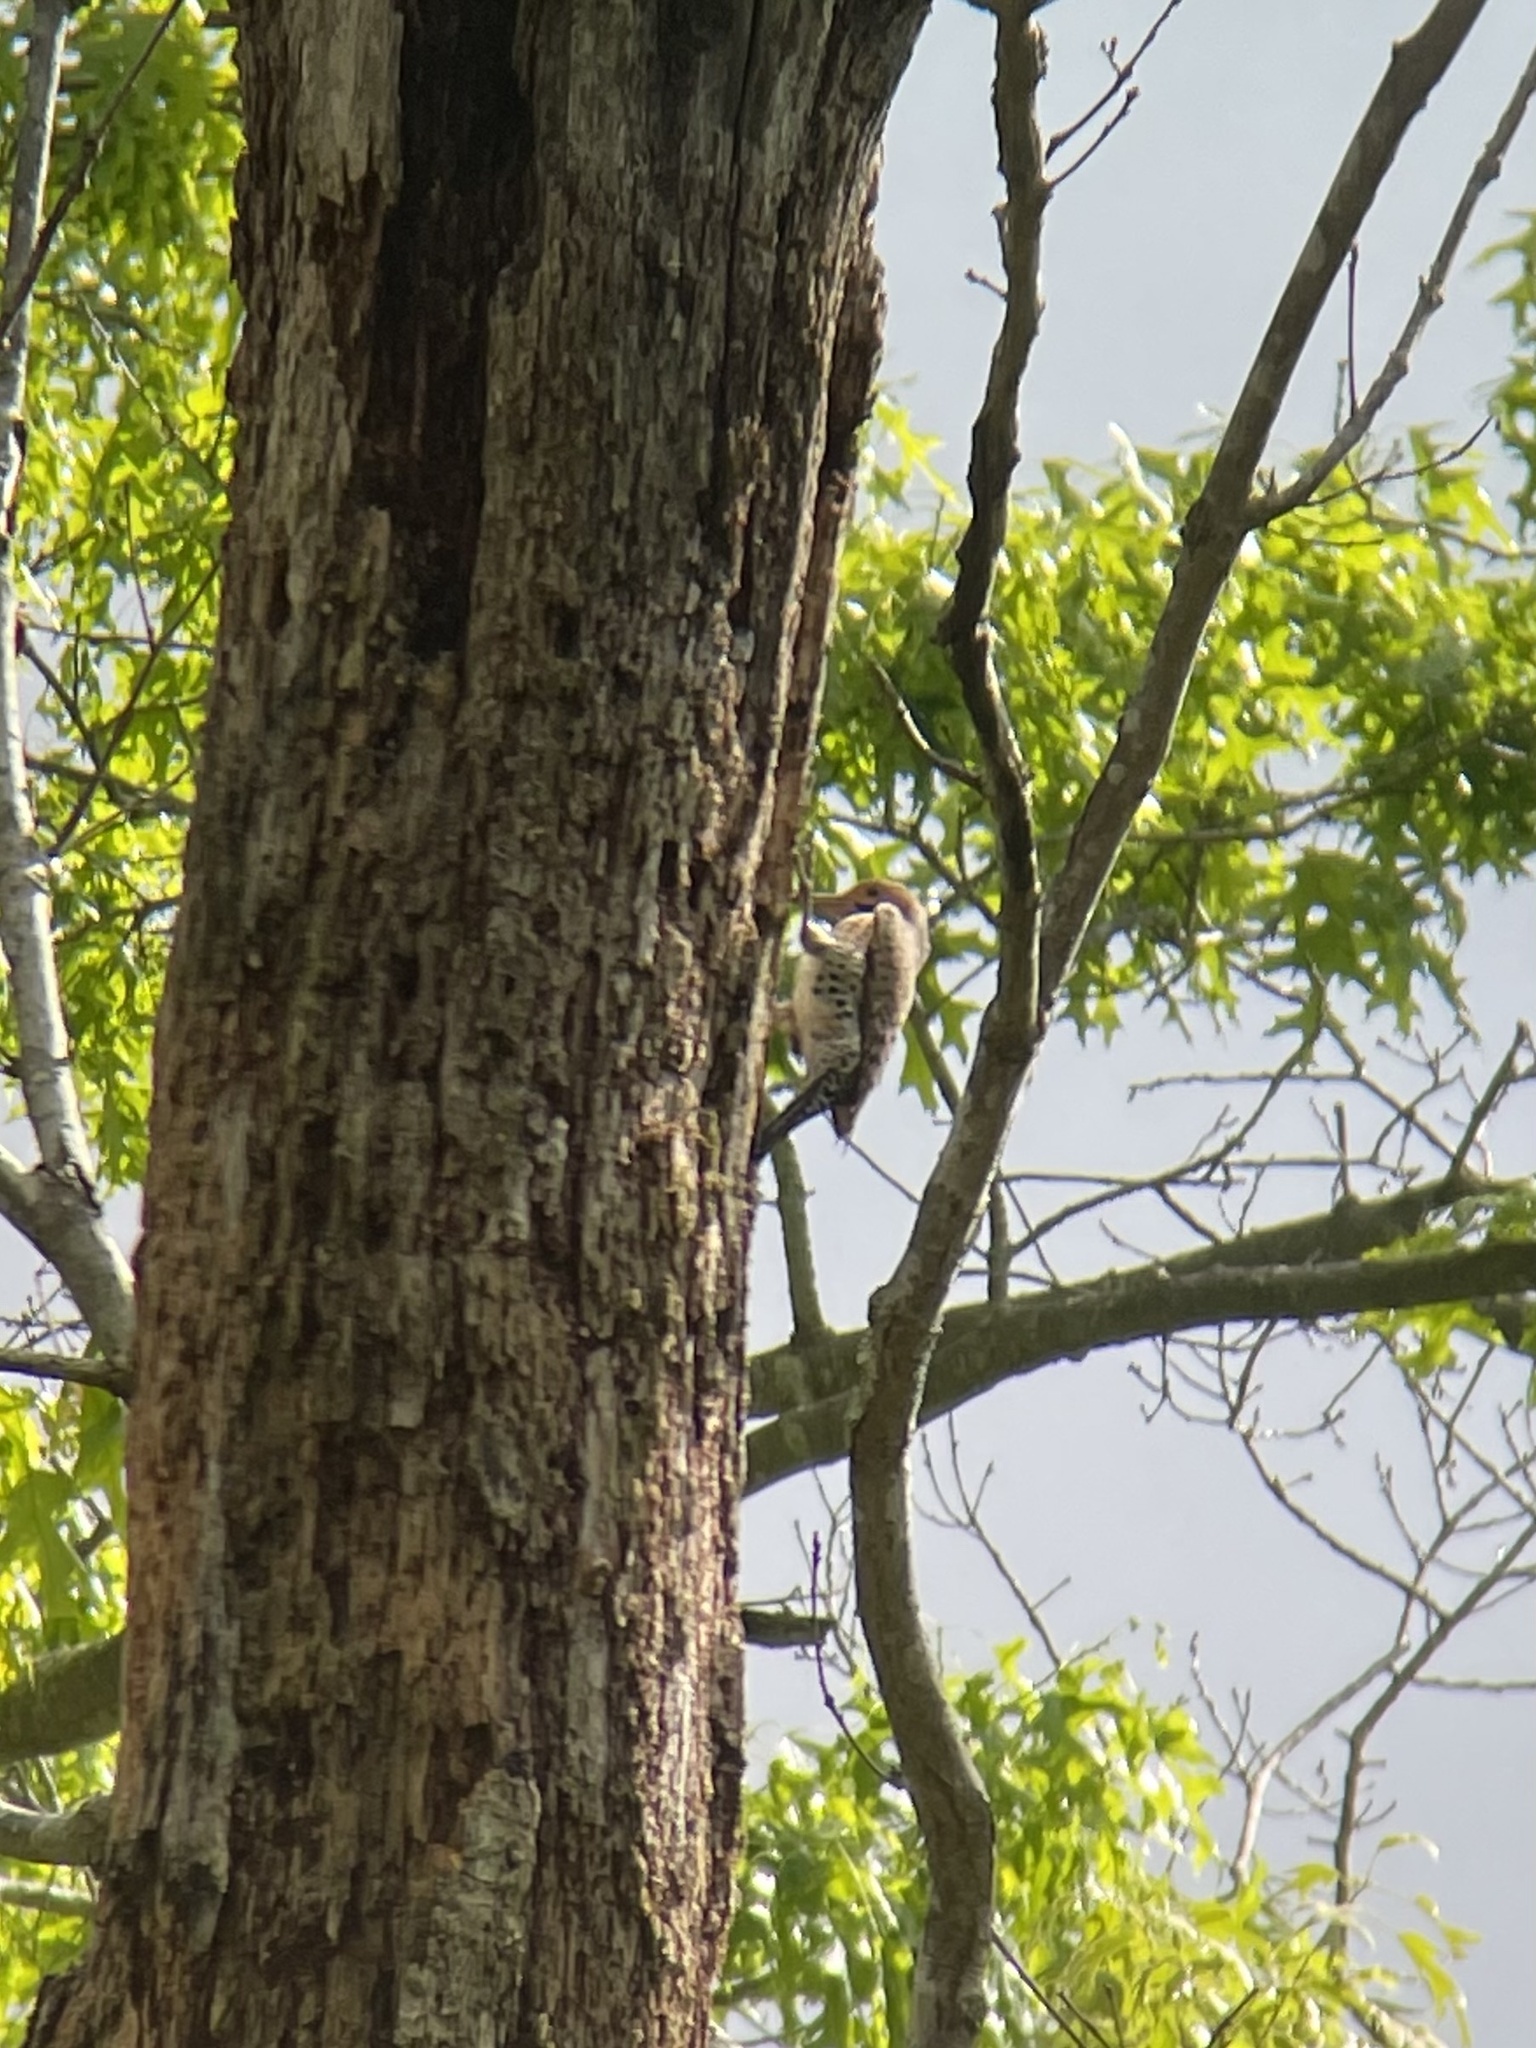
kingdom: Animalia
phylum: Chordata
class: Aves
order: Piciformes
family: Picidae
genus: Colaptes
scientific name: Colaptes auratus
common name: Northern flicker
